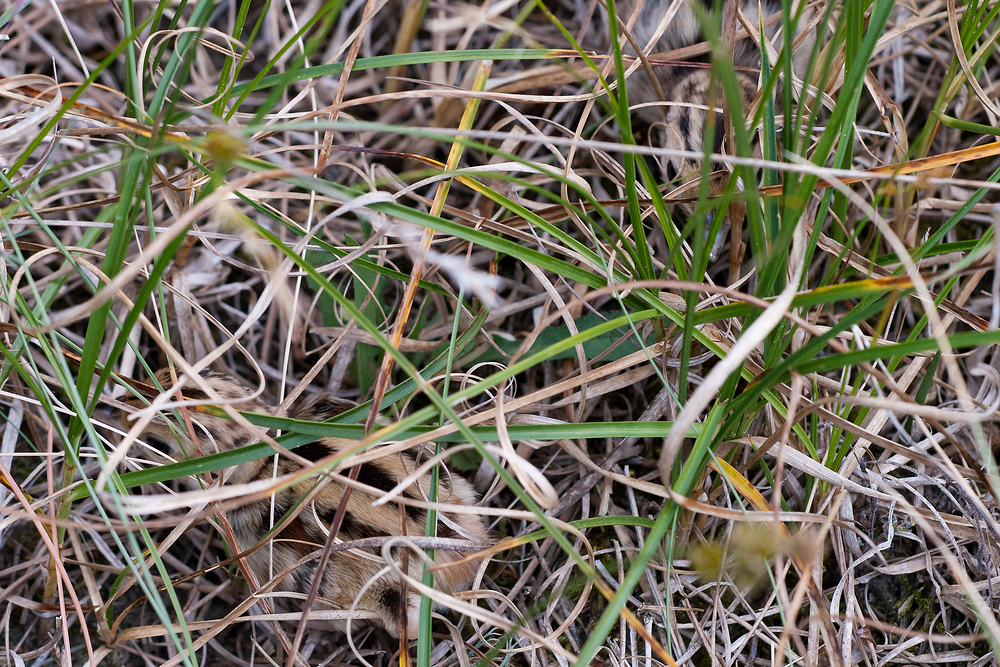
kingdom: Animalia
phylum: Chordata
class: Aves
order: Galliformes
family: Phasianidae
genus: Phasianus
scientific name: Phasianus colchicus
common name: Common pheasant
